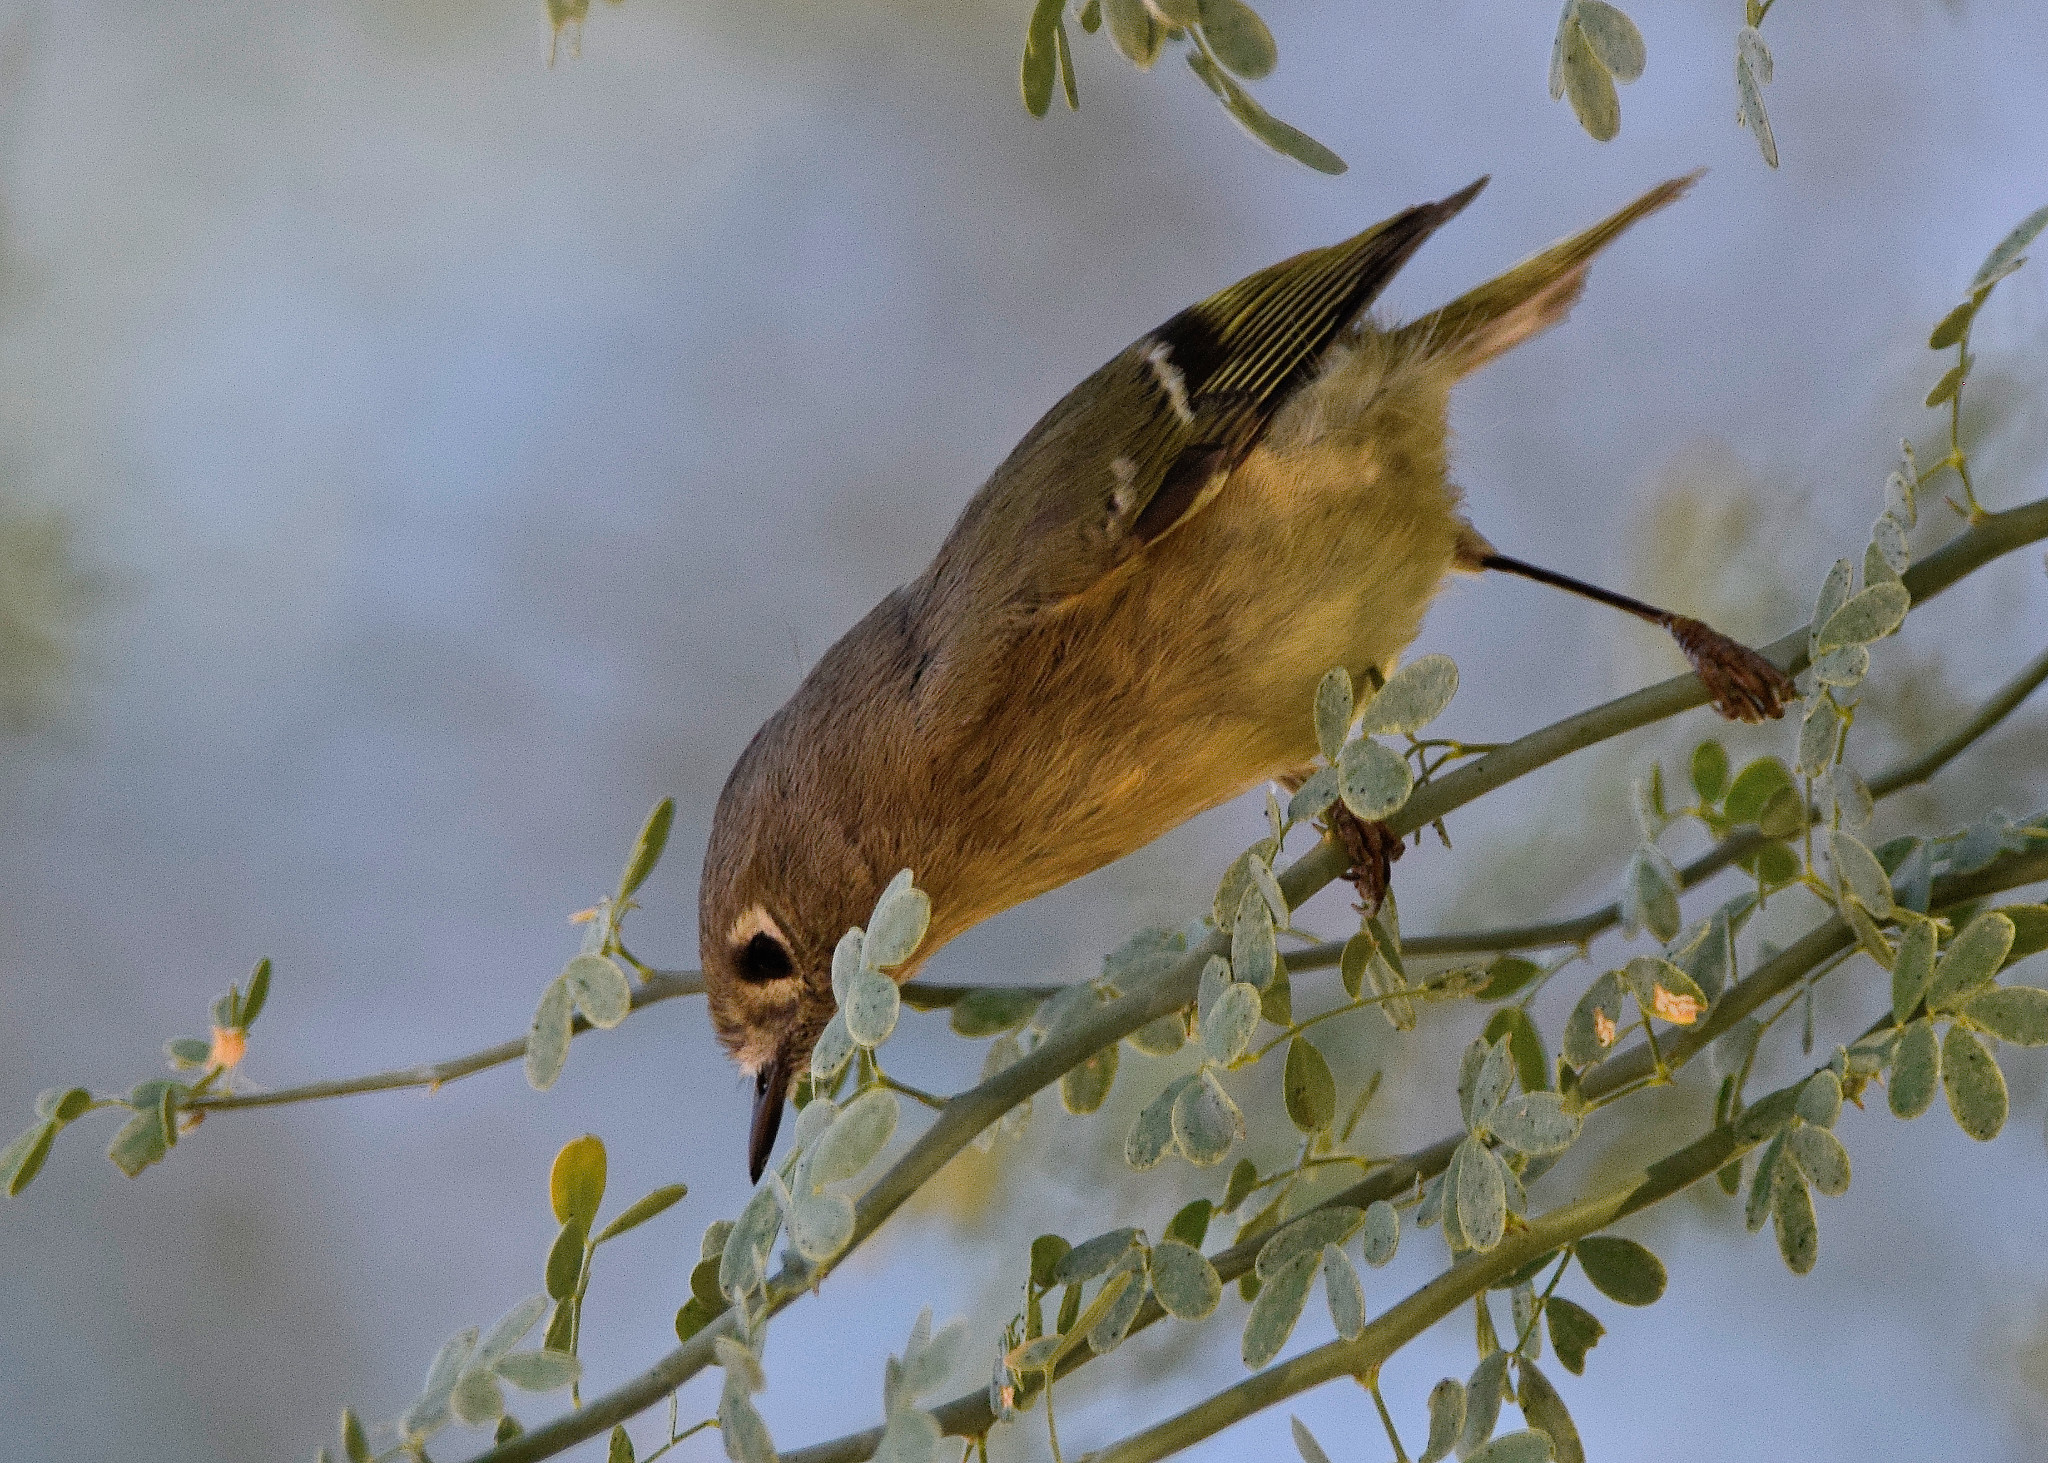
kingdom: Animalia
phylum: Chordata
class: Aves
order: Passeriformes
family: Regulidae
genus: Regulus
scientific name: Regulus calendula
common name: Ruby-crowned kinglet
